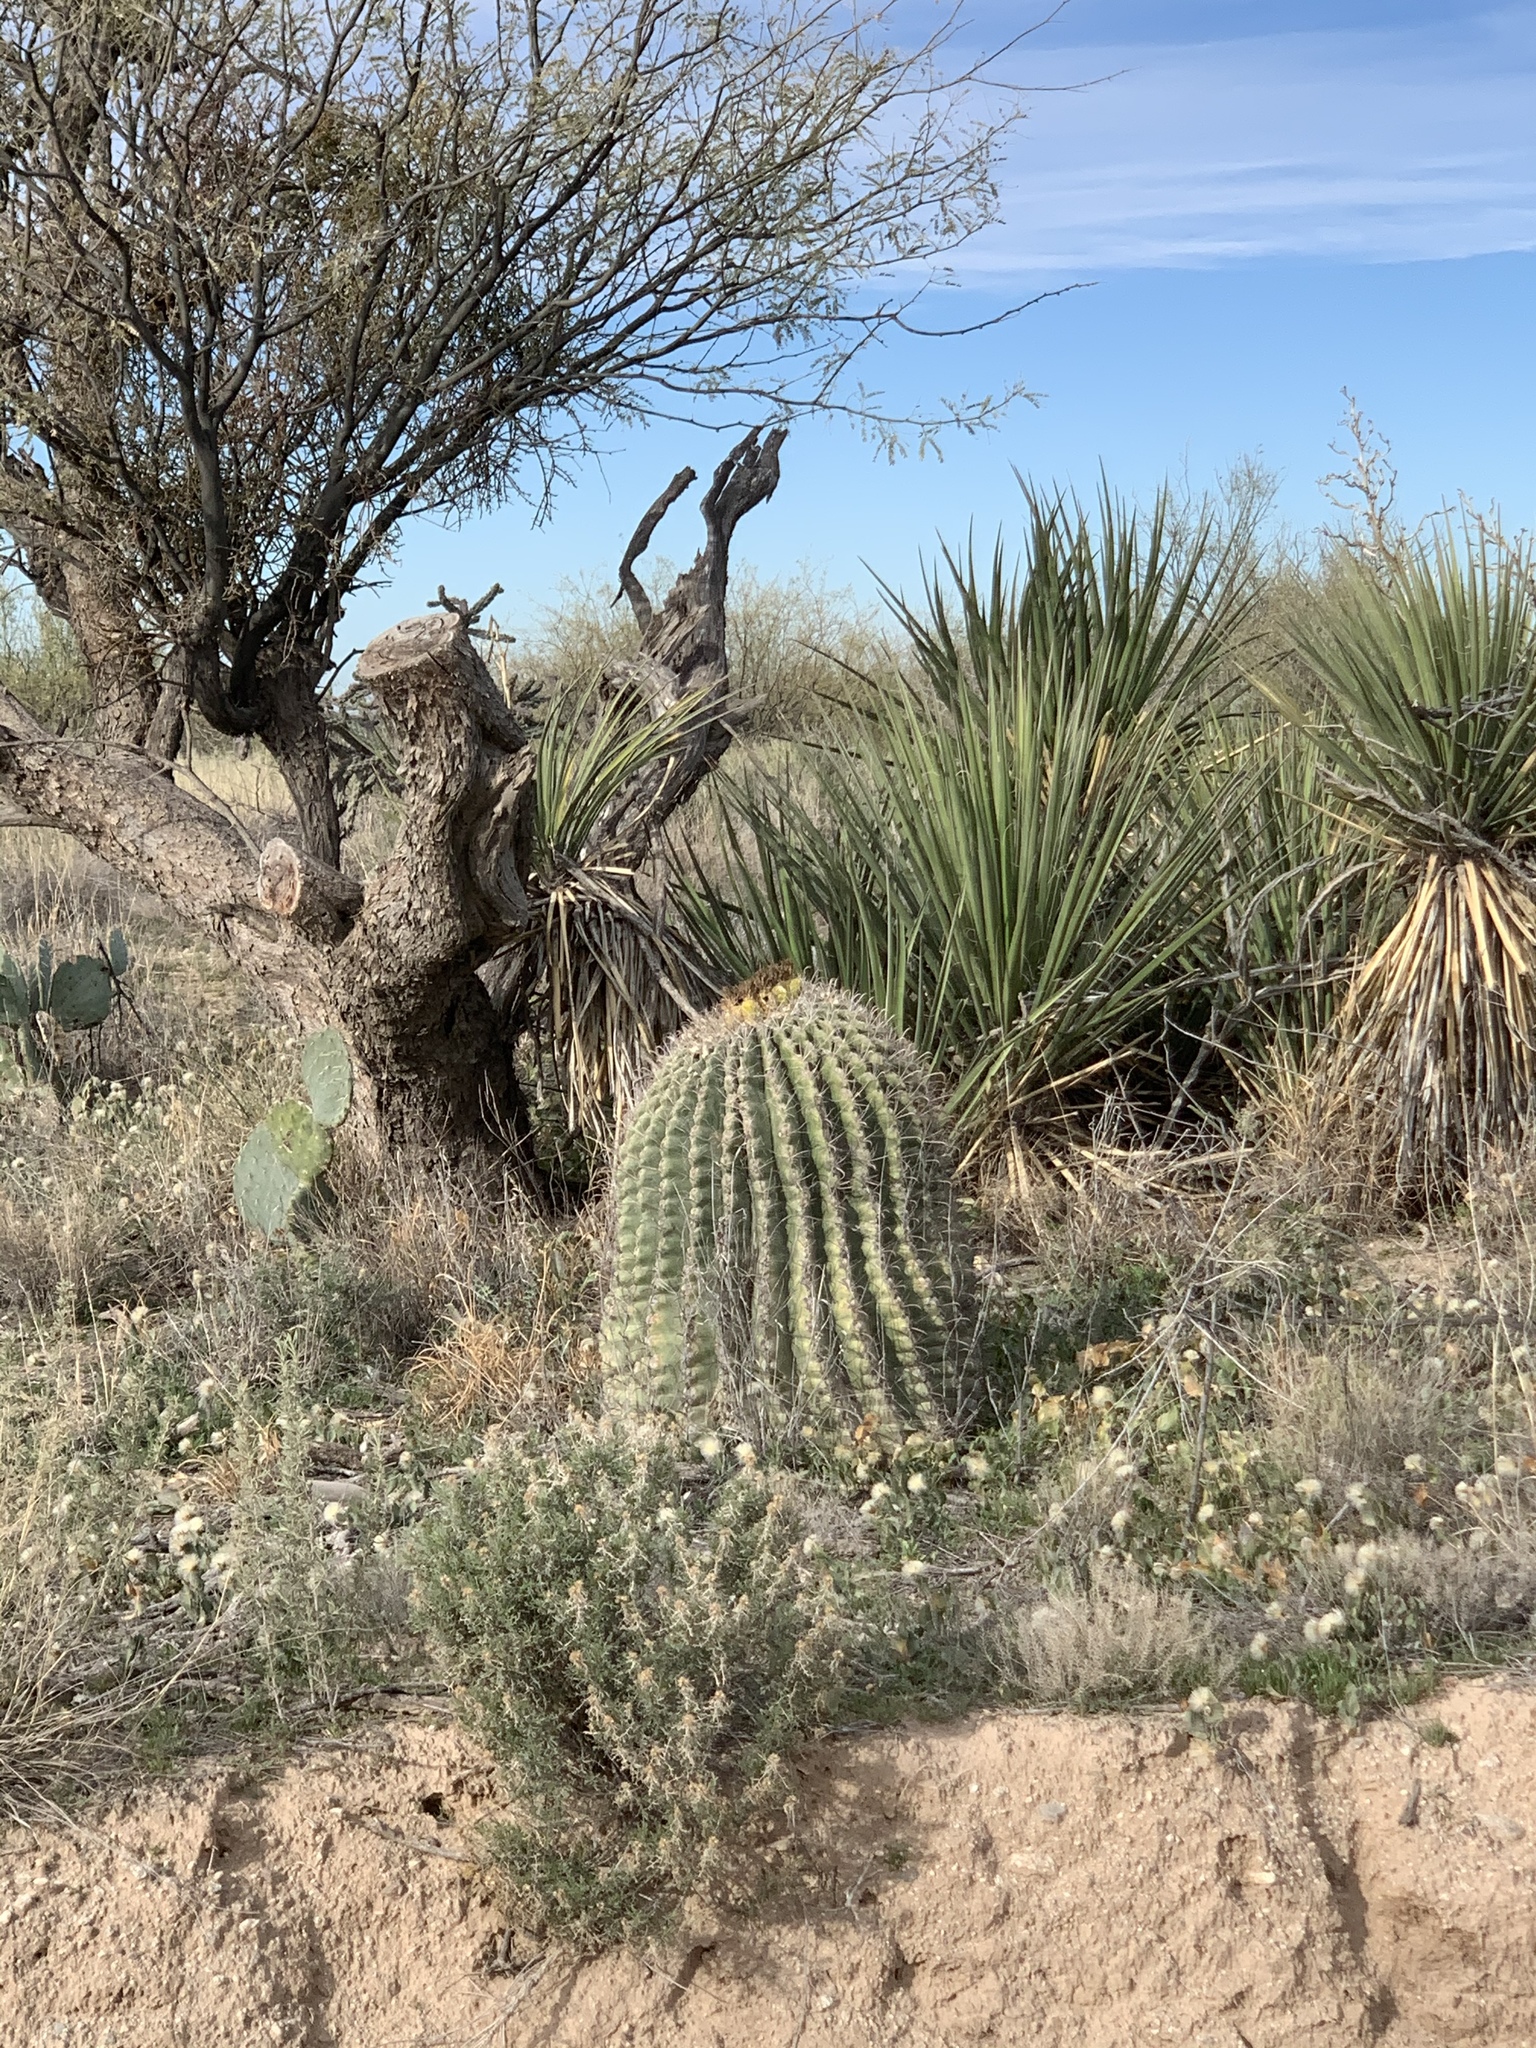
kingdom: Plantae
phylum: Tracheophyta
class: Magnoliopsida
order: Caryophyllales
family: Cactaceae
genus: Ferocactus
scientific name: Ferocactus wislizeni
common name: Candy barrel cactus
